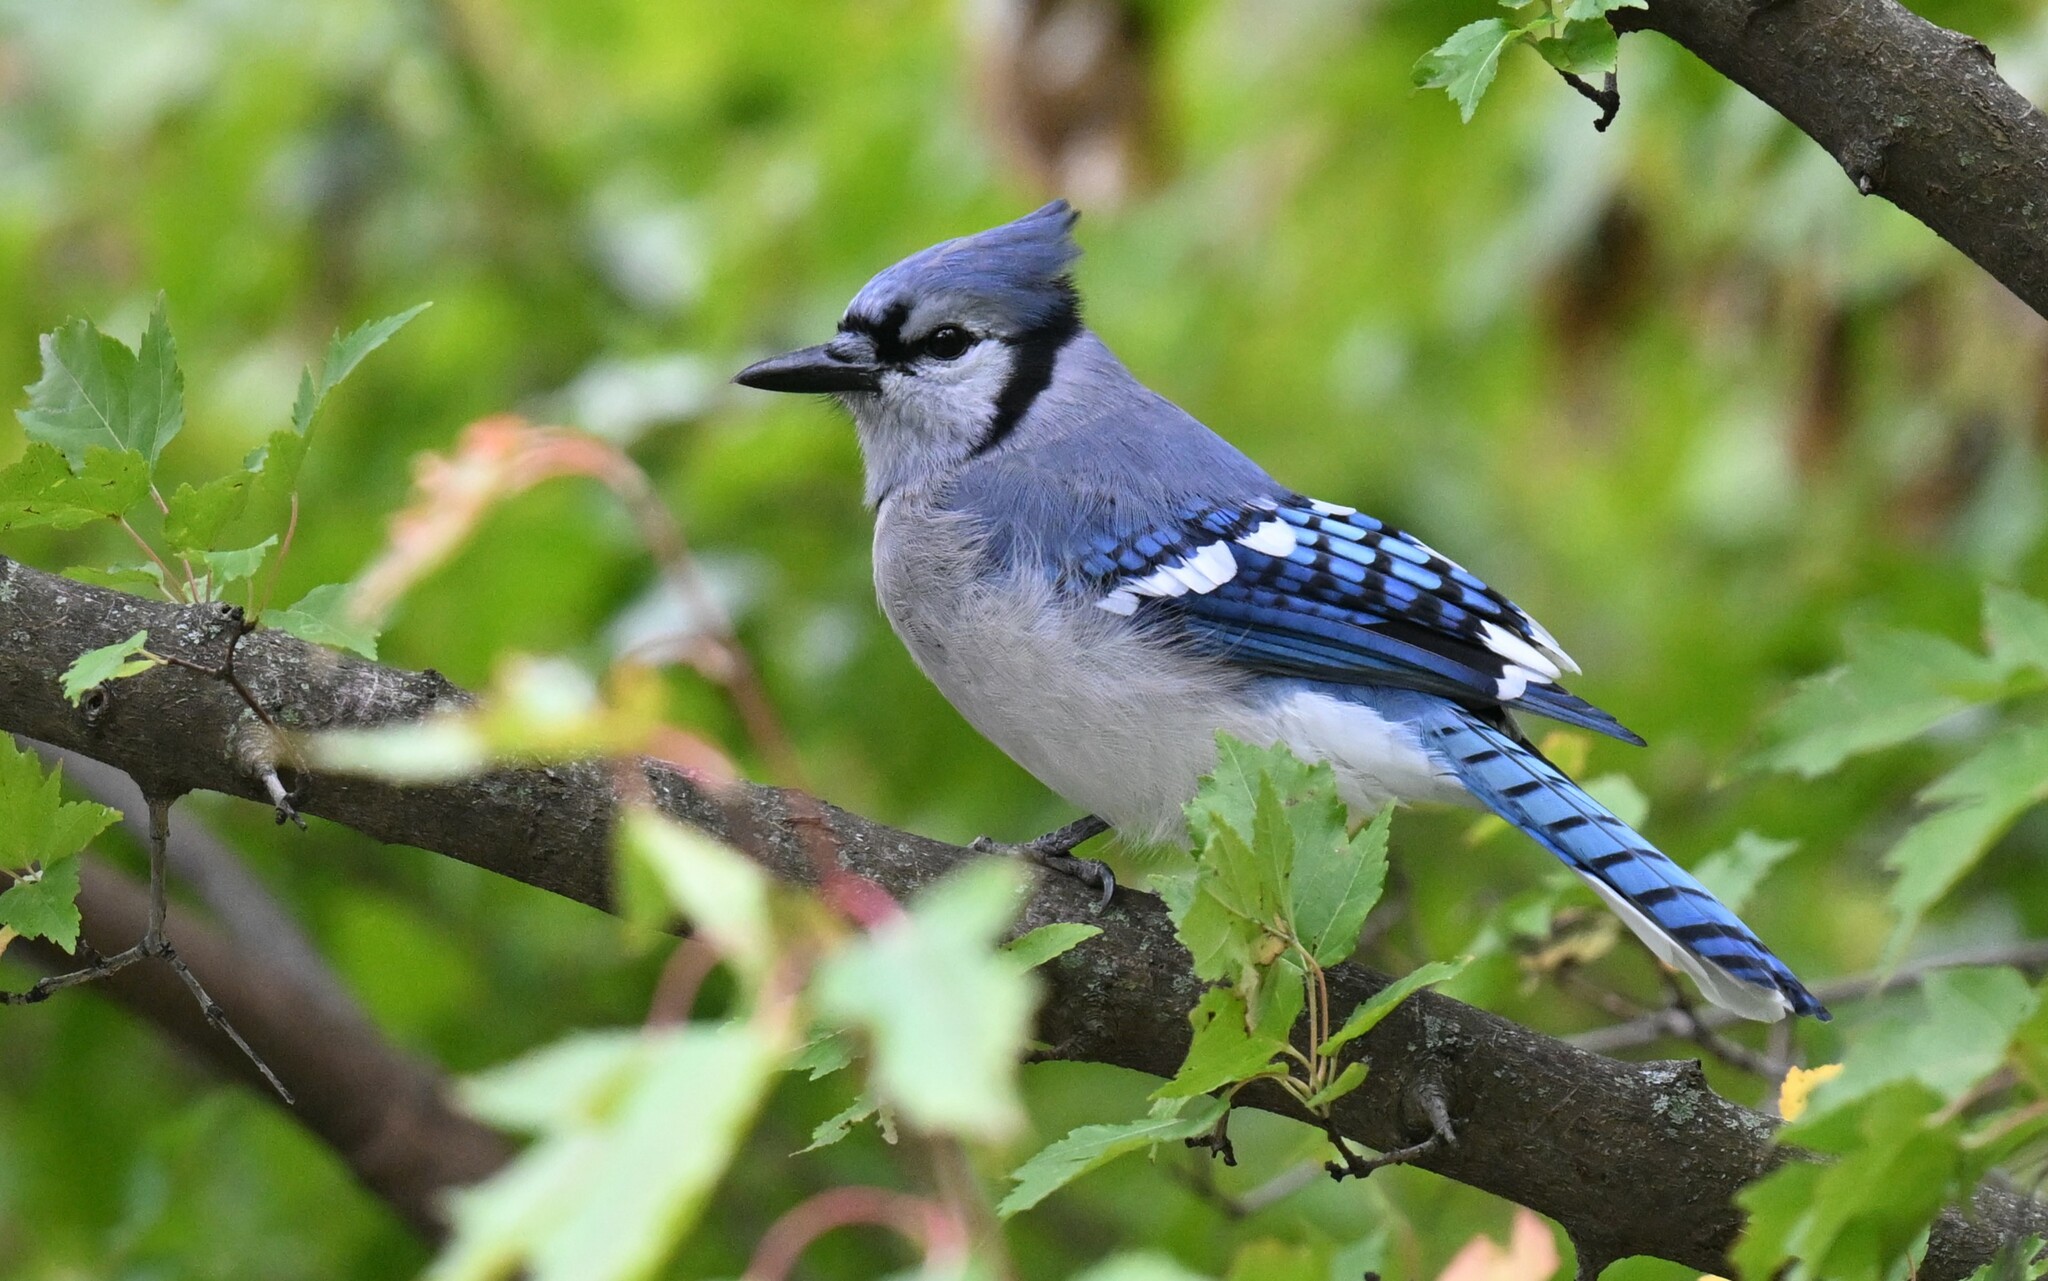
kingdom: Animalia
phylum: Chordata
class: Aves
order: Passeriformes
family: Corvidae
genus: Cyanocitta
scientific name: Cyanocitta cristata
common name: Blue jay
